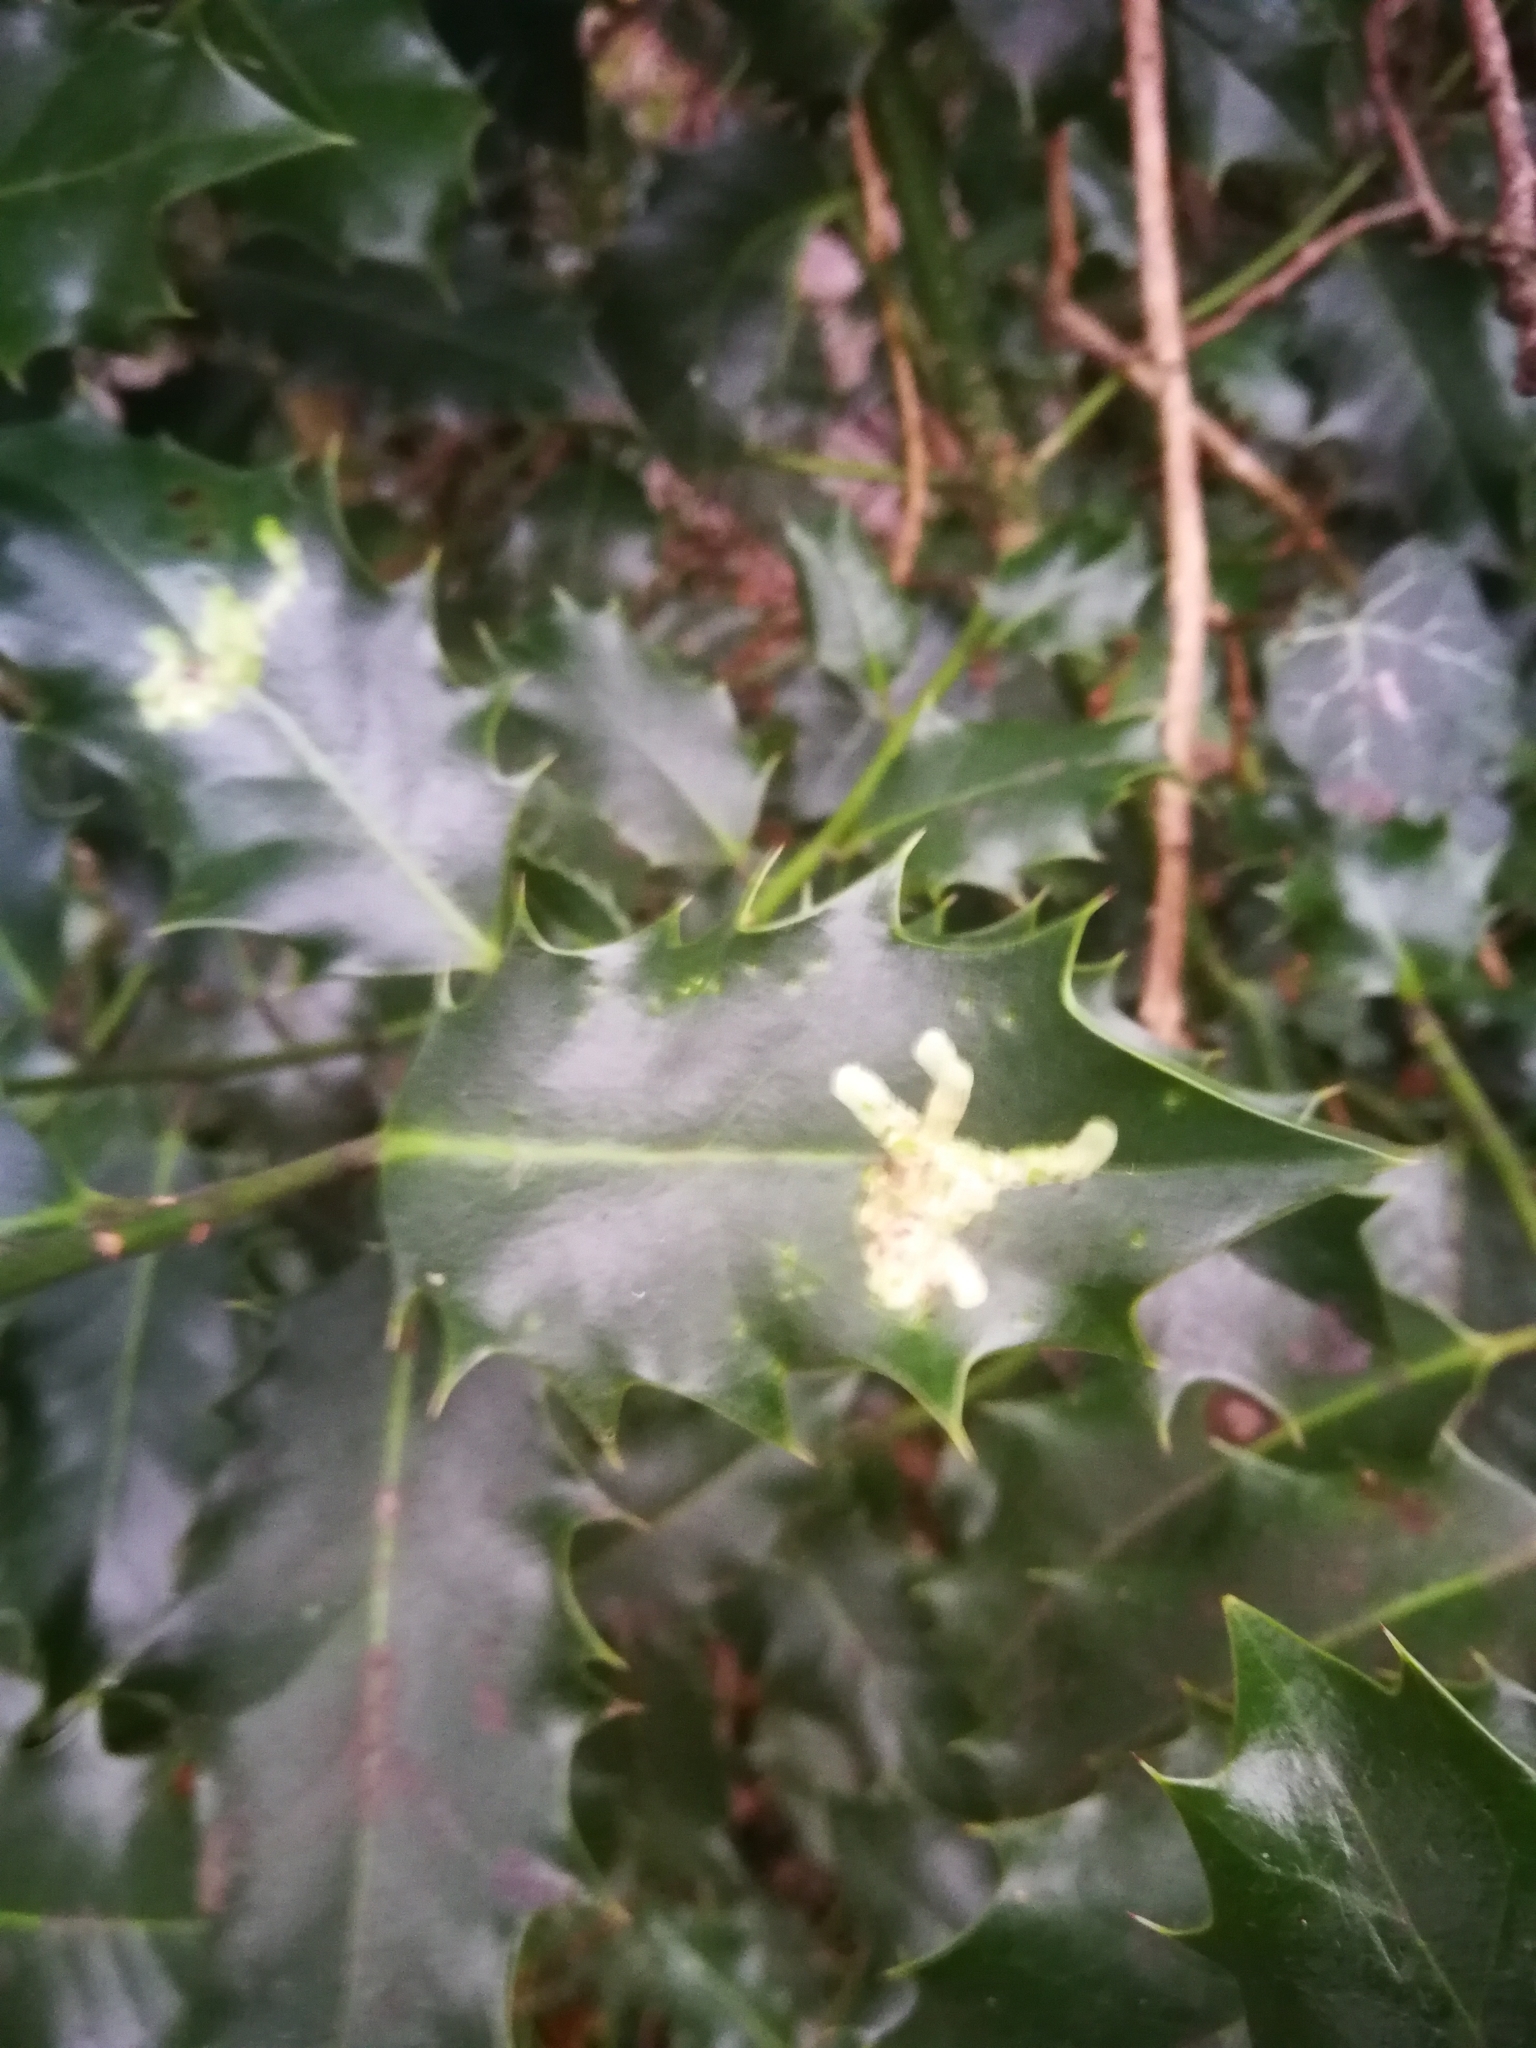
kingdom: Animalia
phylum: Arthropoda
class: Insecta
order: Diptera
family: Agromyzidae
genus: Phytomyza
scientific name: Phytomyza ilicis
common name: Holly leafminer
